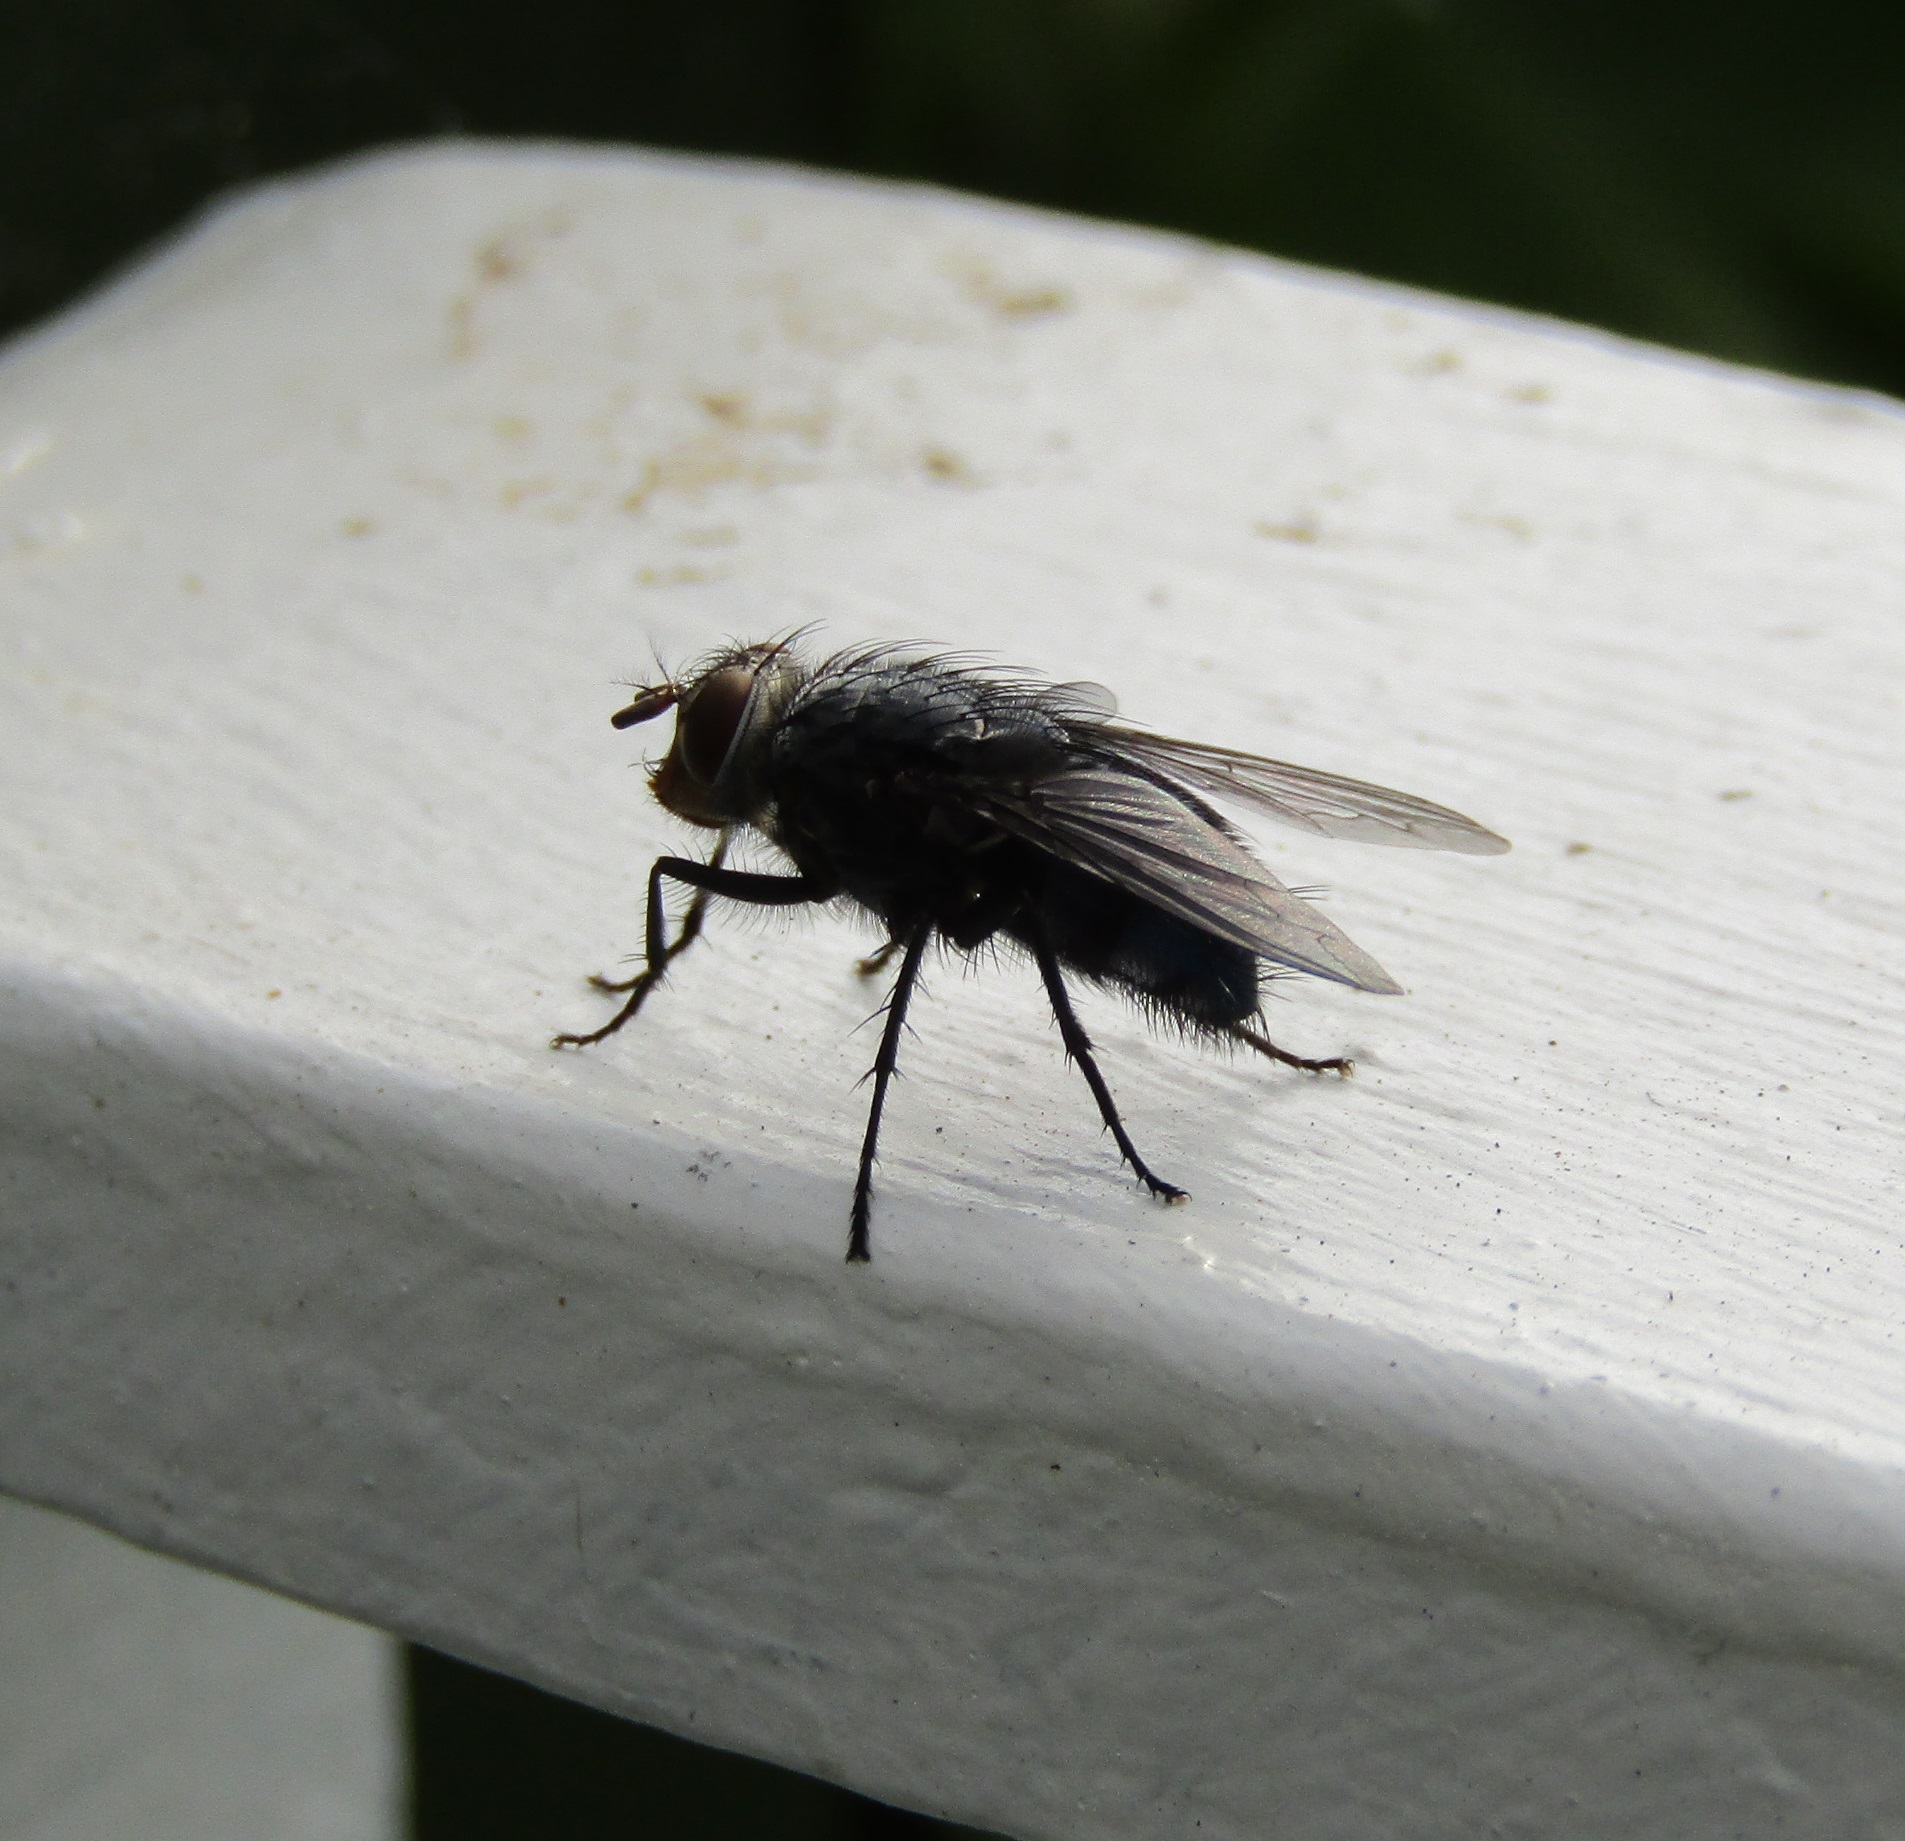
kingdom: Animalia
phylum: Arthropoda
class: Insecta
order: Diptera
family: Calliphoridae
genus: Calliphora
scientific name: Calliphora vicina
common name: Common blow flie
